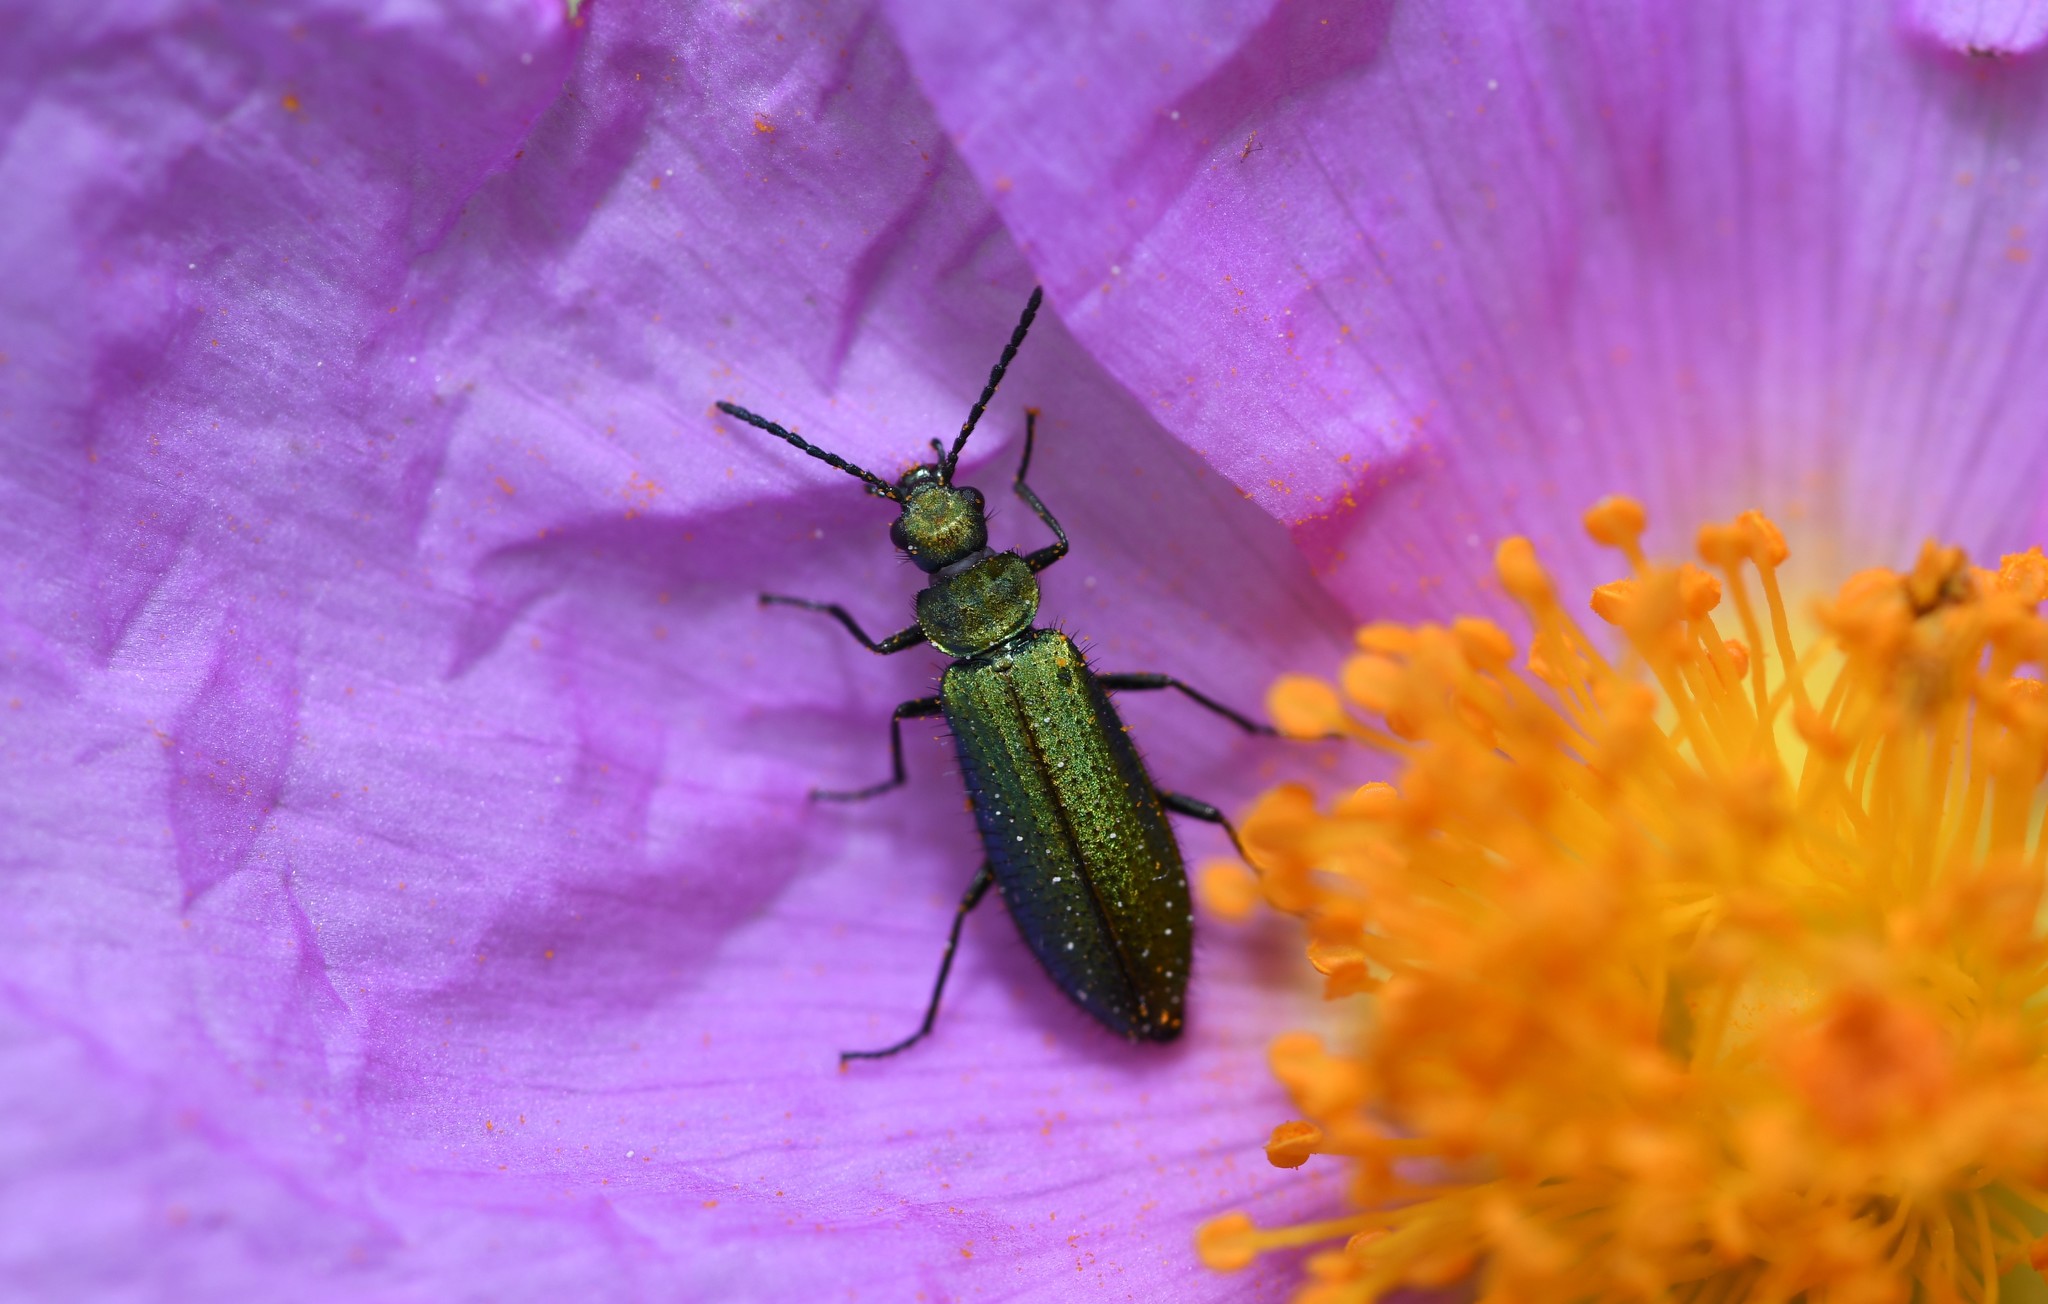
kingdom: Animalia
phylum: Arthropoda
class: Insecta
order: Coleoptera
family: Stenotrachelidae
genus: Stenotrachelus
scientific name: Stenotrachelus aeneus
